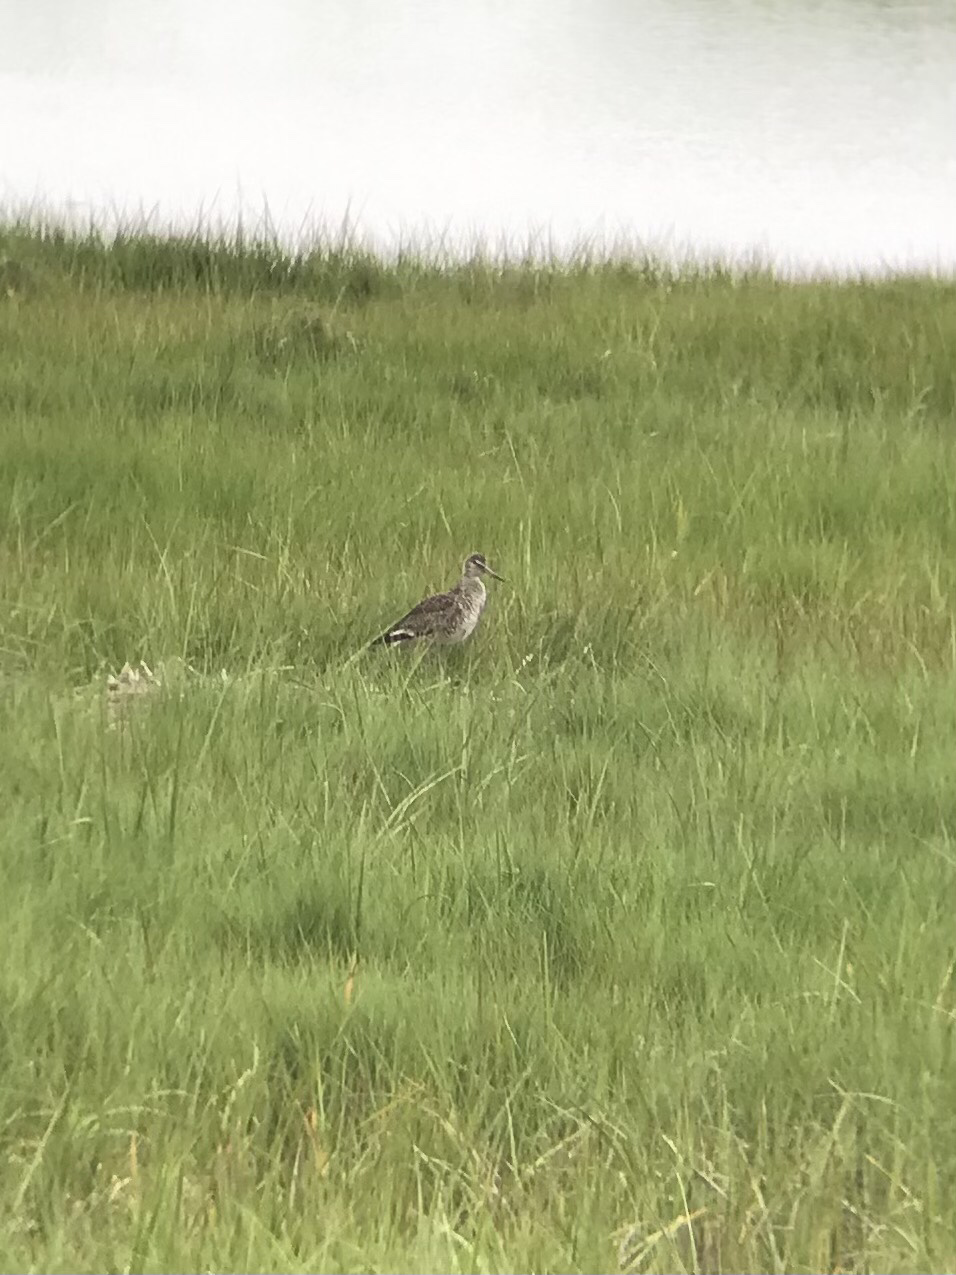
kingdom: Animalia
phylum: Chordata
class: Aves
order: Charadriiformes
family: Scolopacidae
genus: Tringa
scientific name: Tringa semipalmata
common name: Willet
